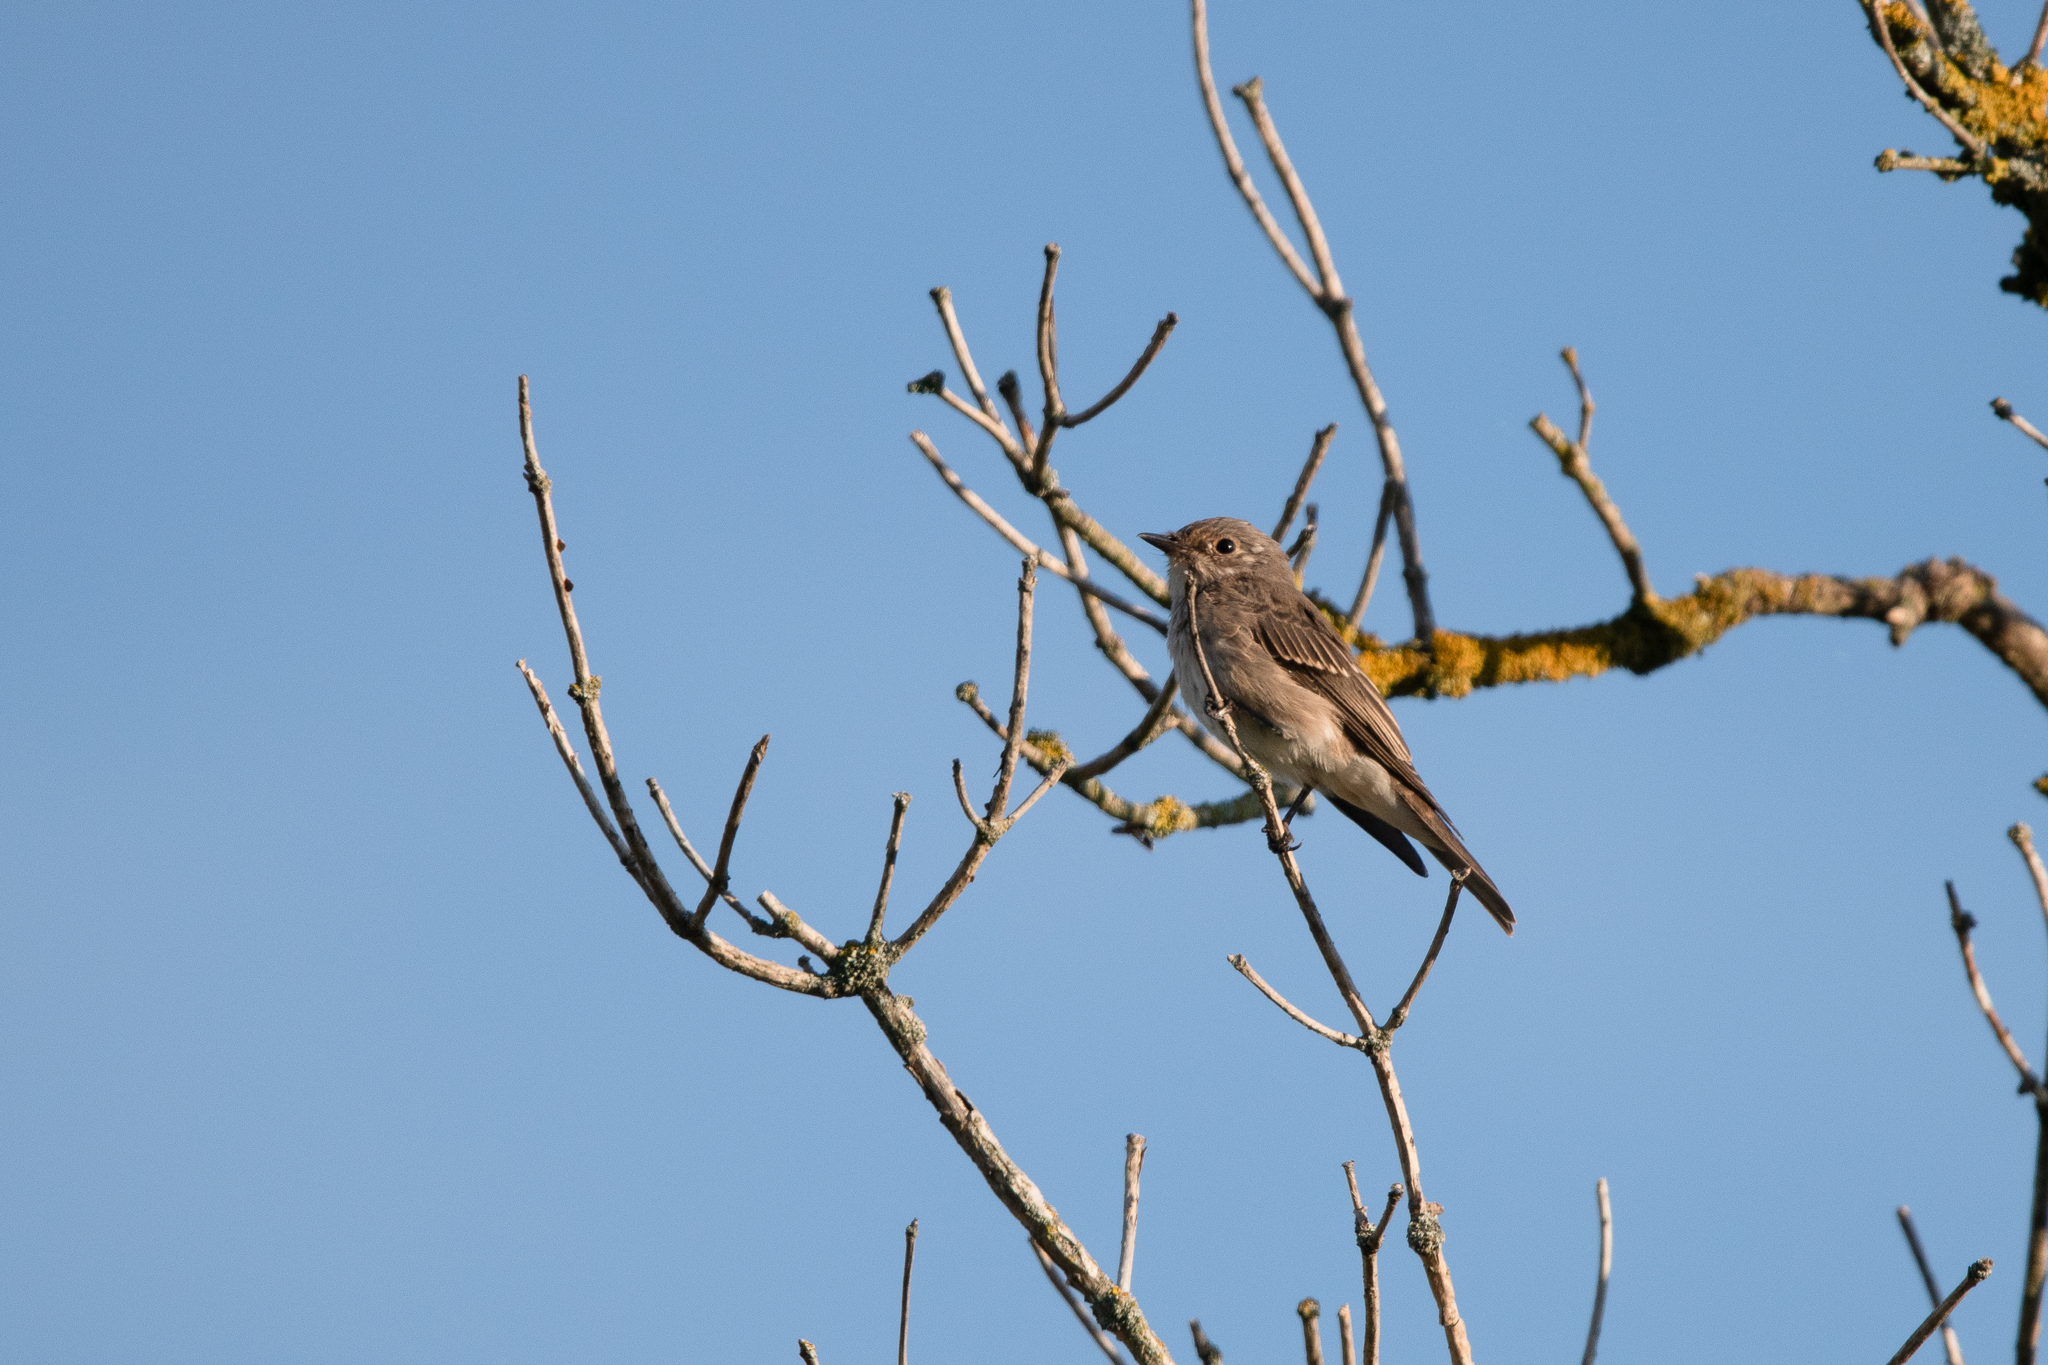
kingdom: Animalia
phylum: Chordata
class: Aves
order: Passeriformes
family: Muscicapidae
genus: Muscicapa
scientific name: Muscicapa striata
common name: Spotted flycatcher
